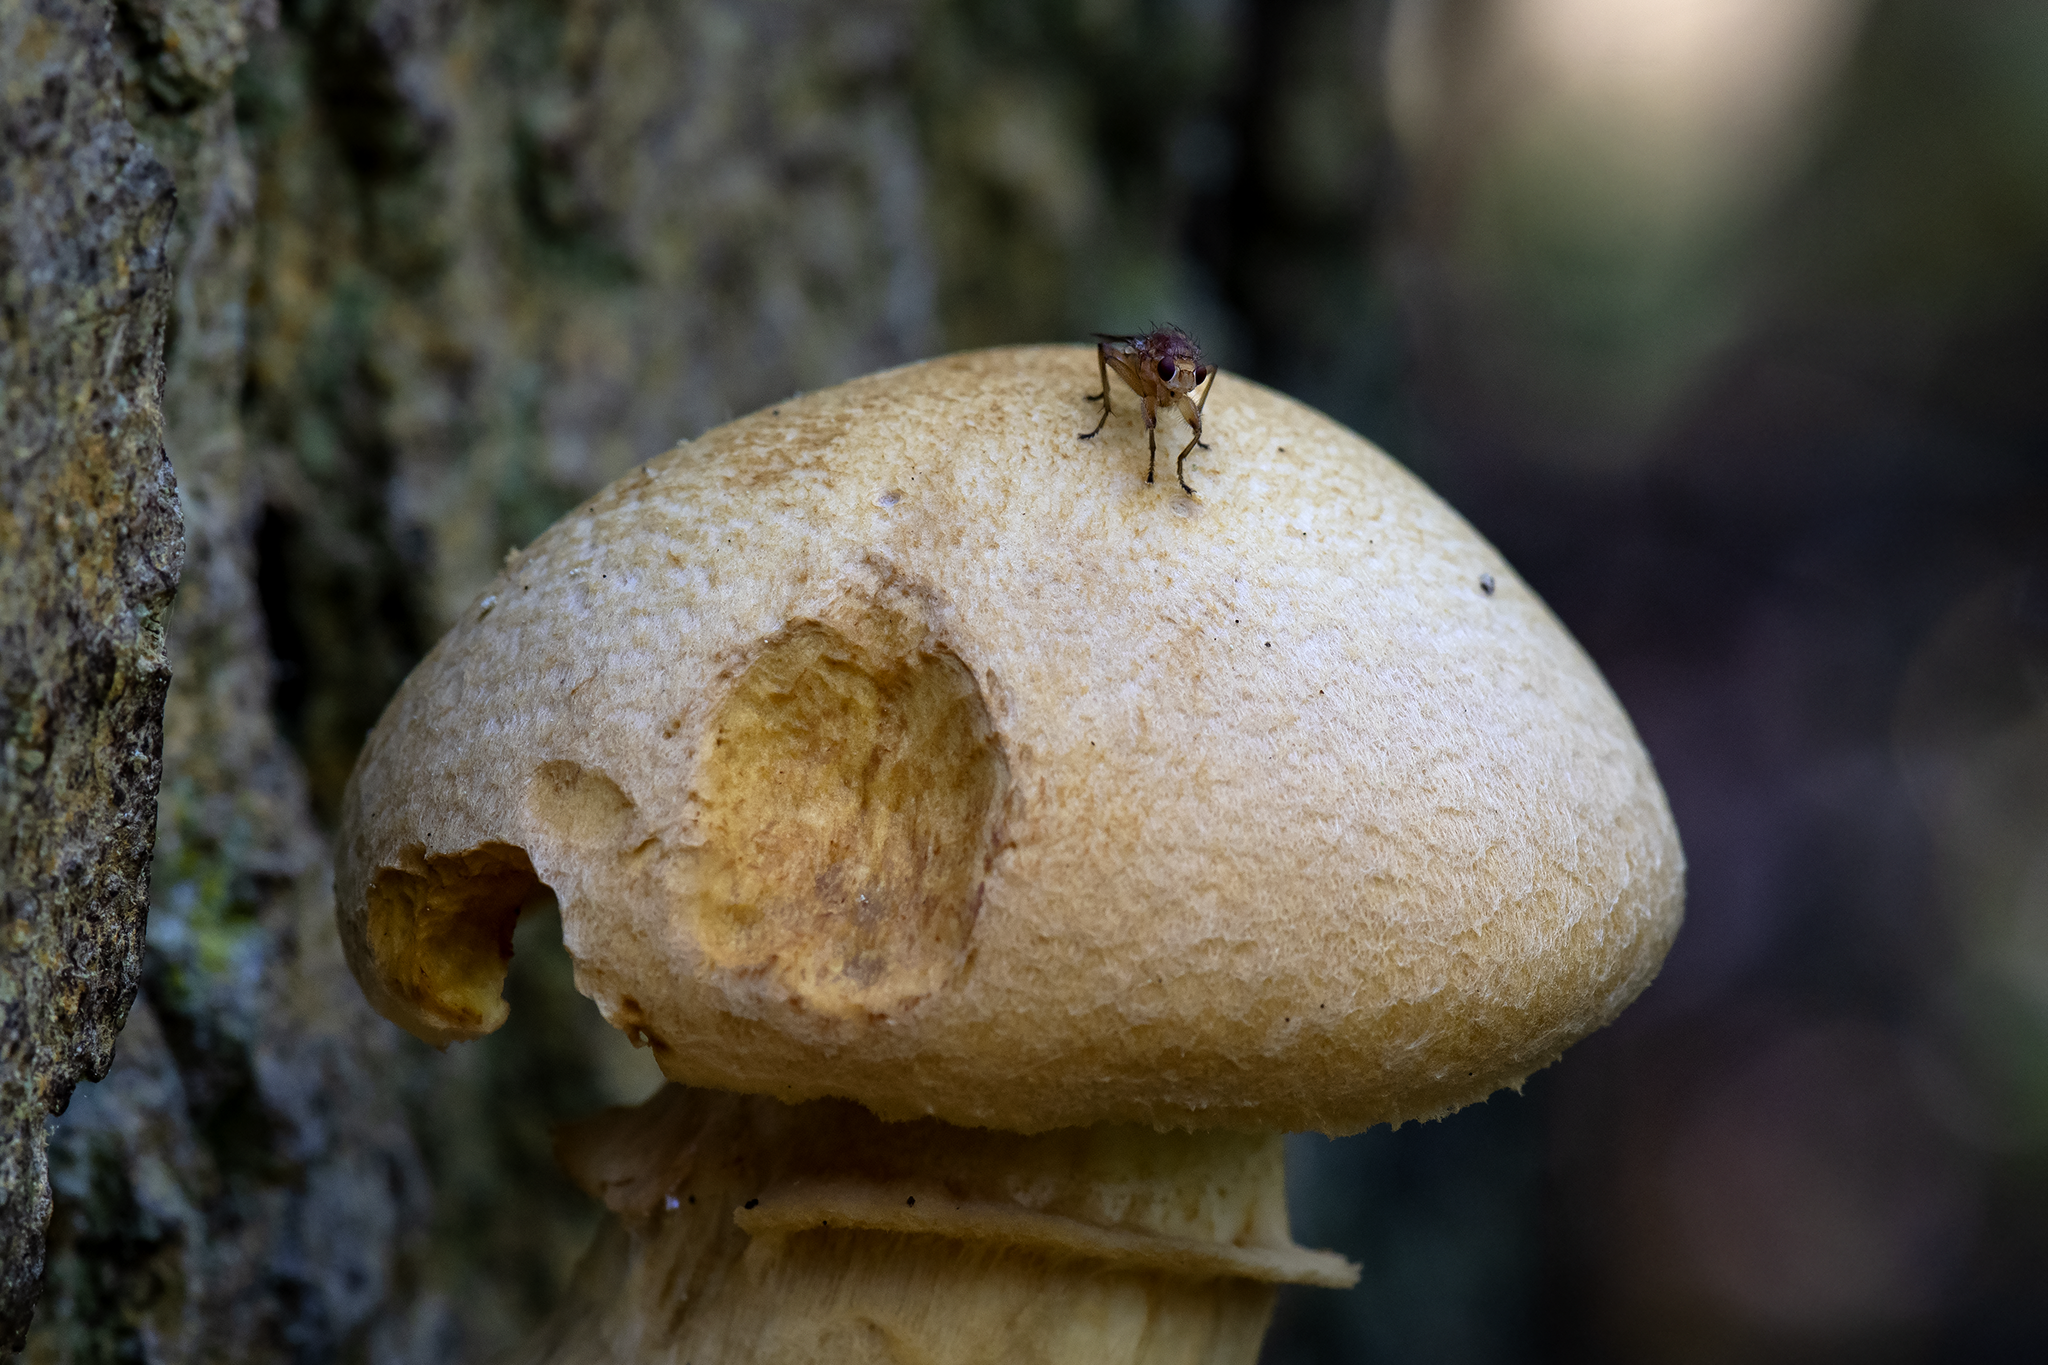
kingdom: Animalia
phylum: Arthropoda
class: Insecta
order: Diptera
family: Heleomyzidae
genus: Suillia
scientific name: Suillia convergens
